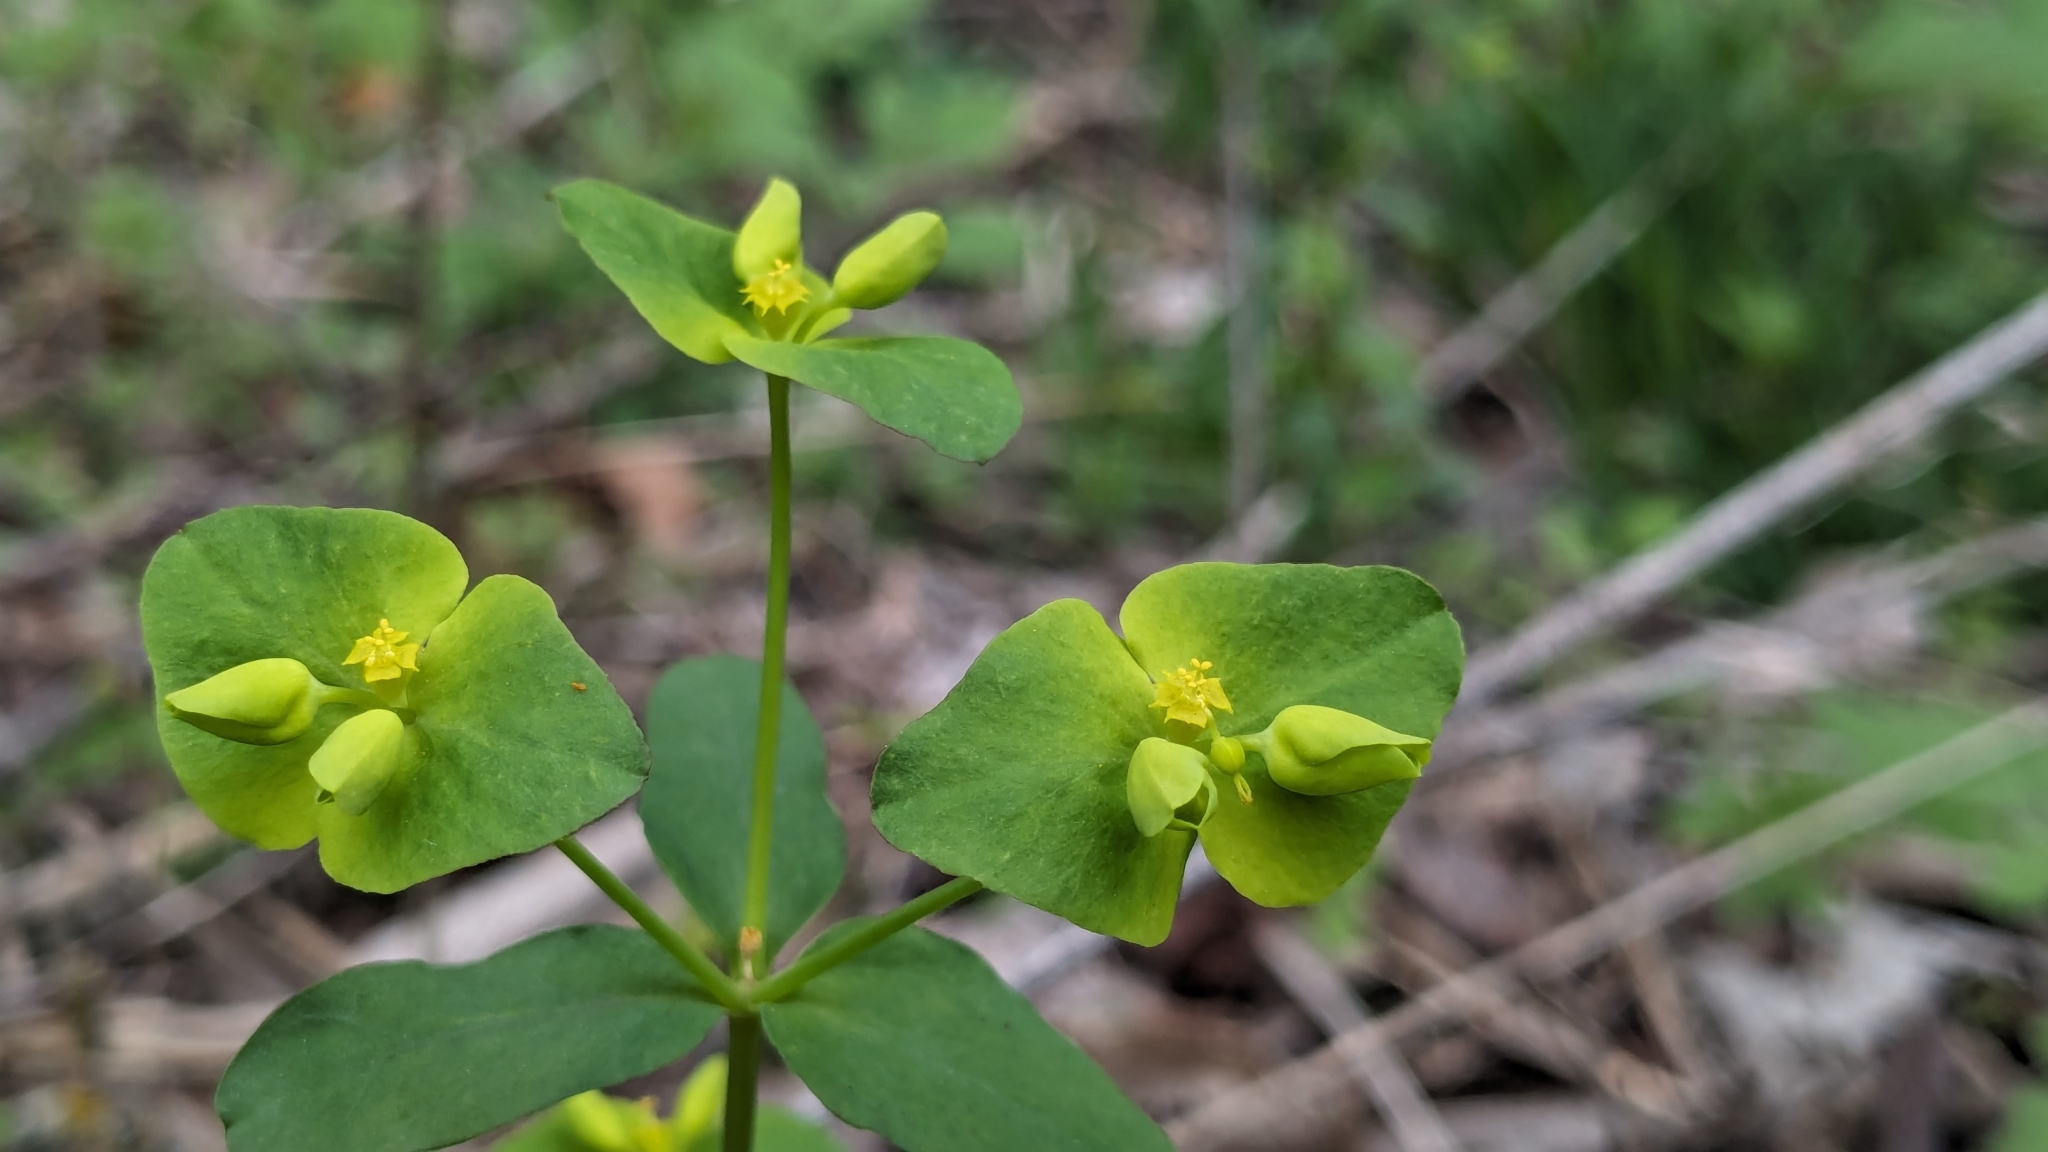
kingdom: Plantae
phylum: Tracheophyta
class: Magnoliopsida
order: Malpighiales
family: Euphorbiaceae
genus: Euphorbia
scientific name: Euphorbia roemeriana
